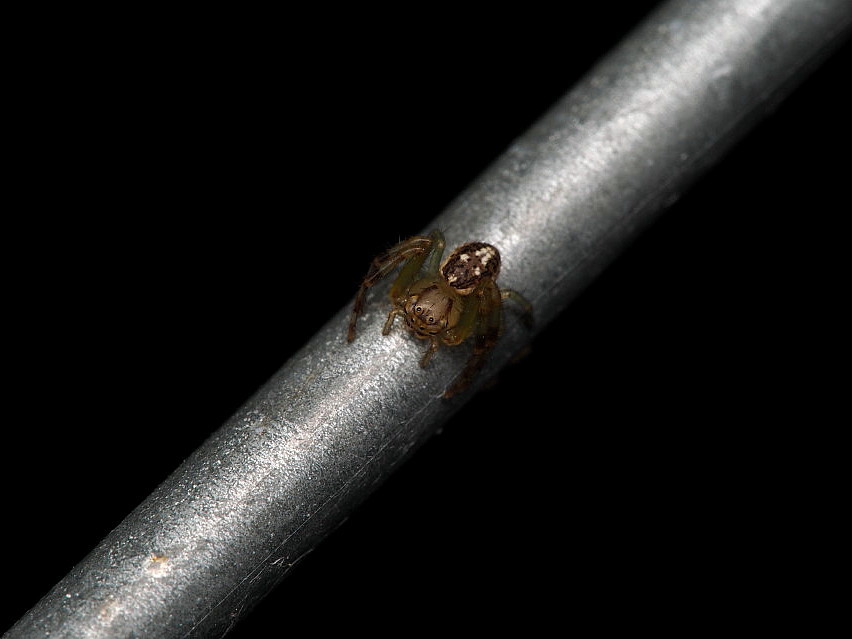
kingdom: Animalia
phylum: Arthropoda
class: Arachnida
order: Araneae
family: Thomisidae
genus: Diaea
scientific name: Diaea ambara
